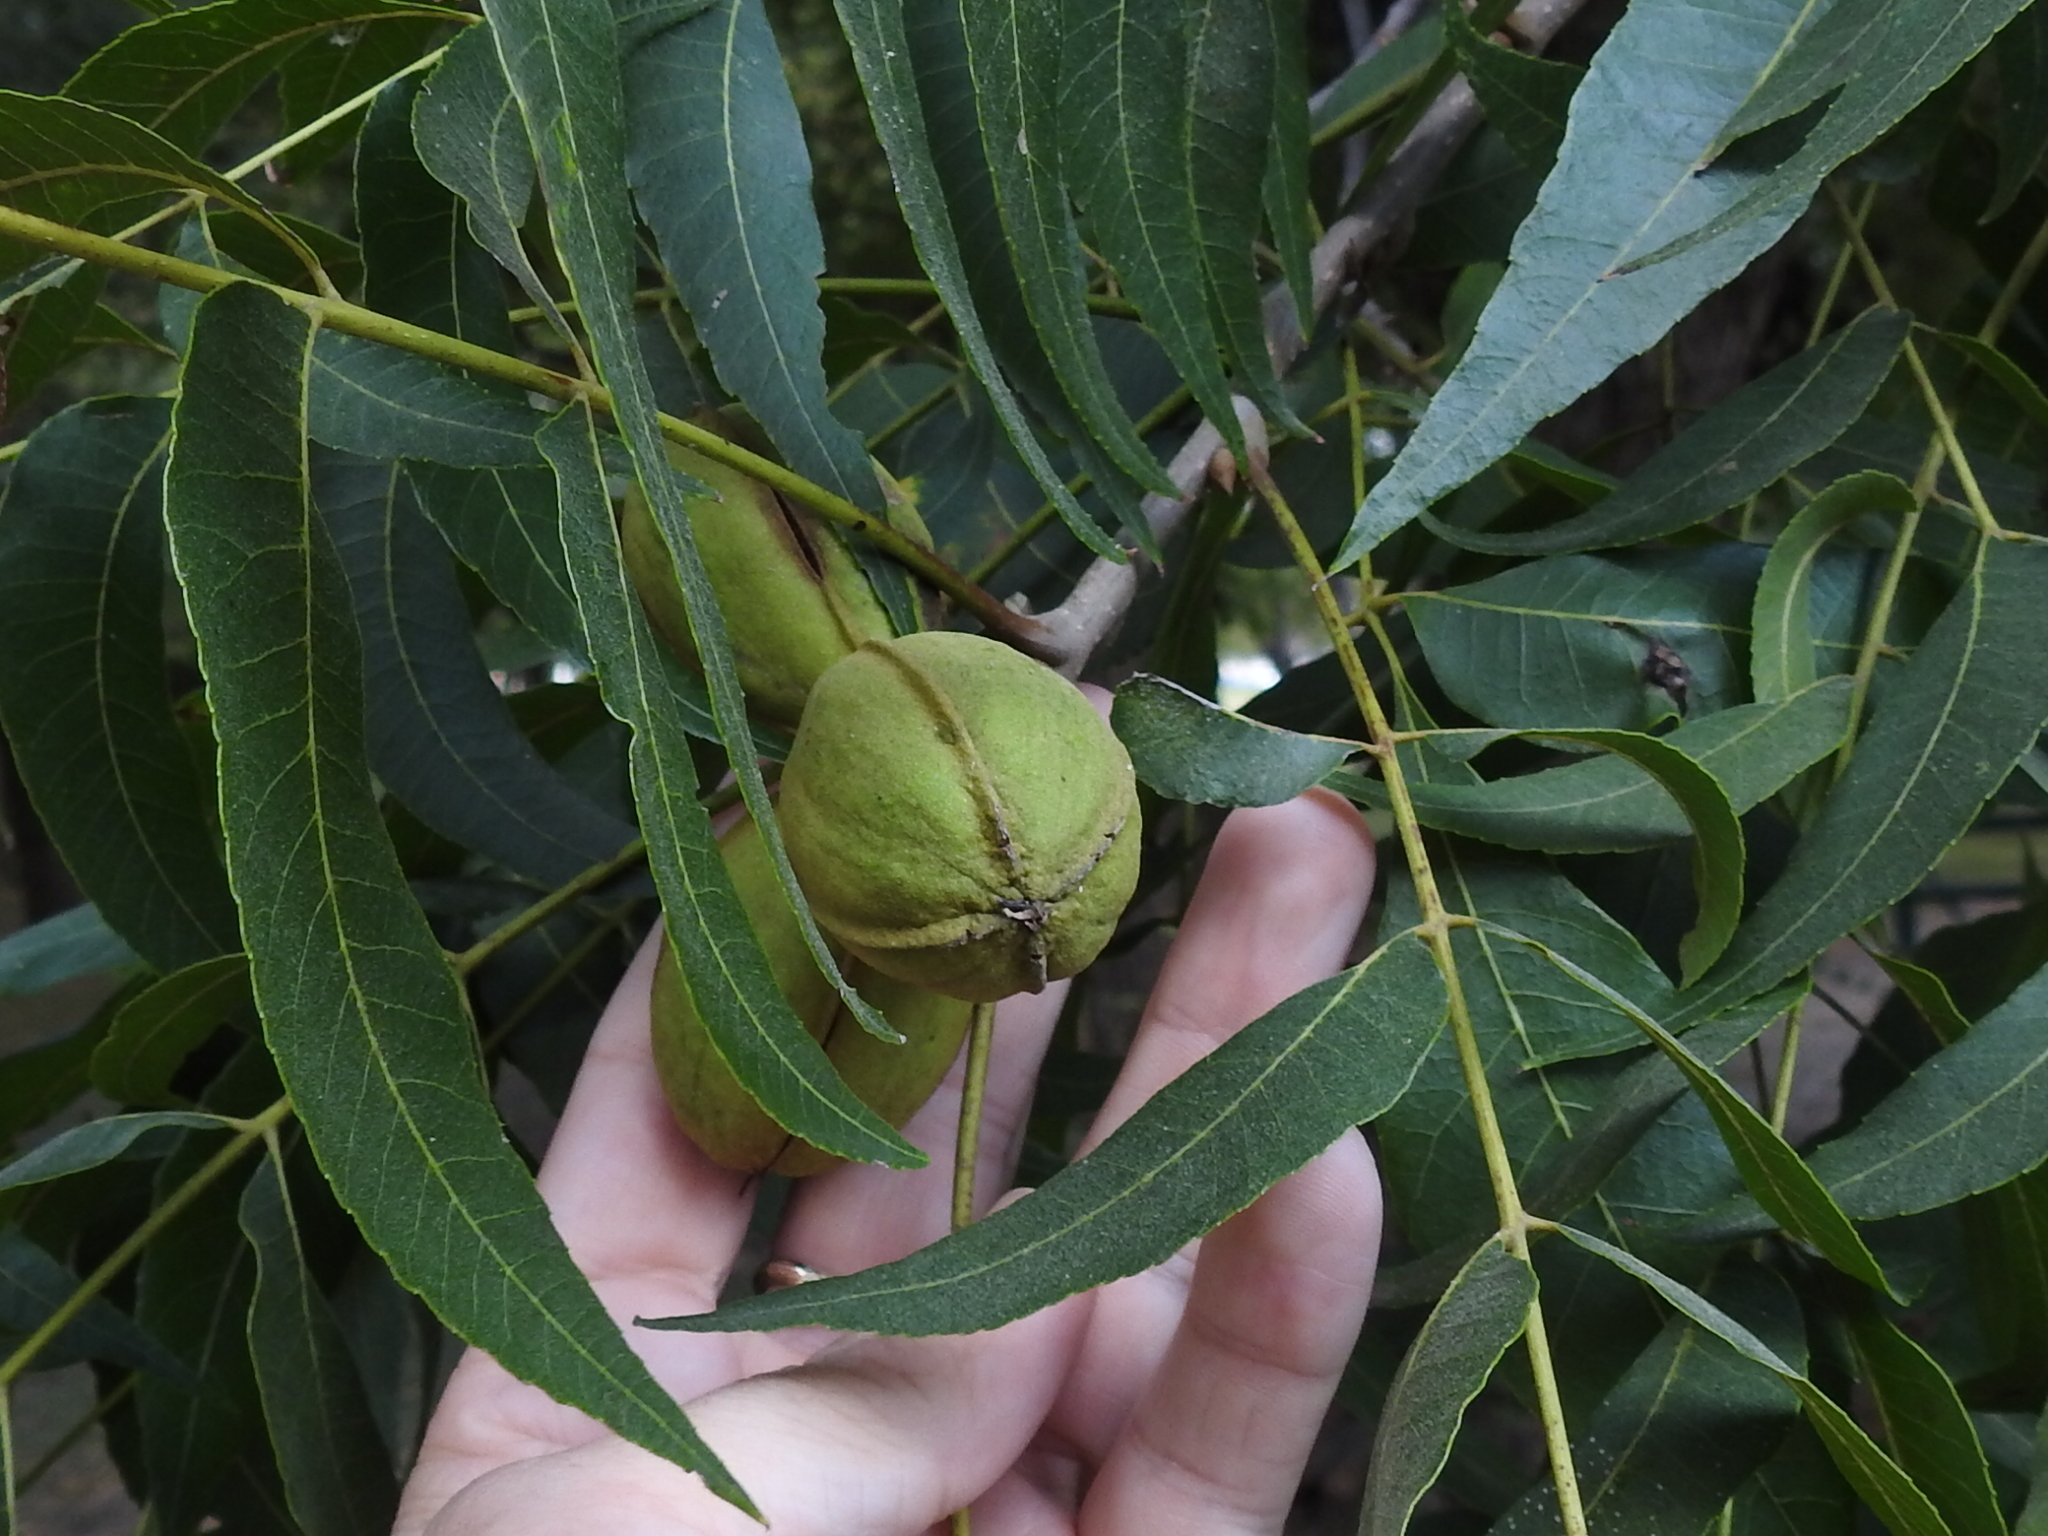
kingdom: Plantae
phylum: Tracheophyta
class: Magnoliopsida
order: Fagales
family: Juglandaceae
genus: Carya
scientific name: Carya illinoinensis
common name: Pecan
